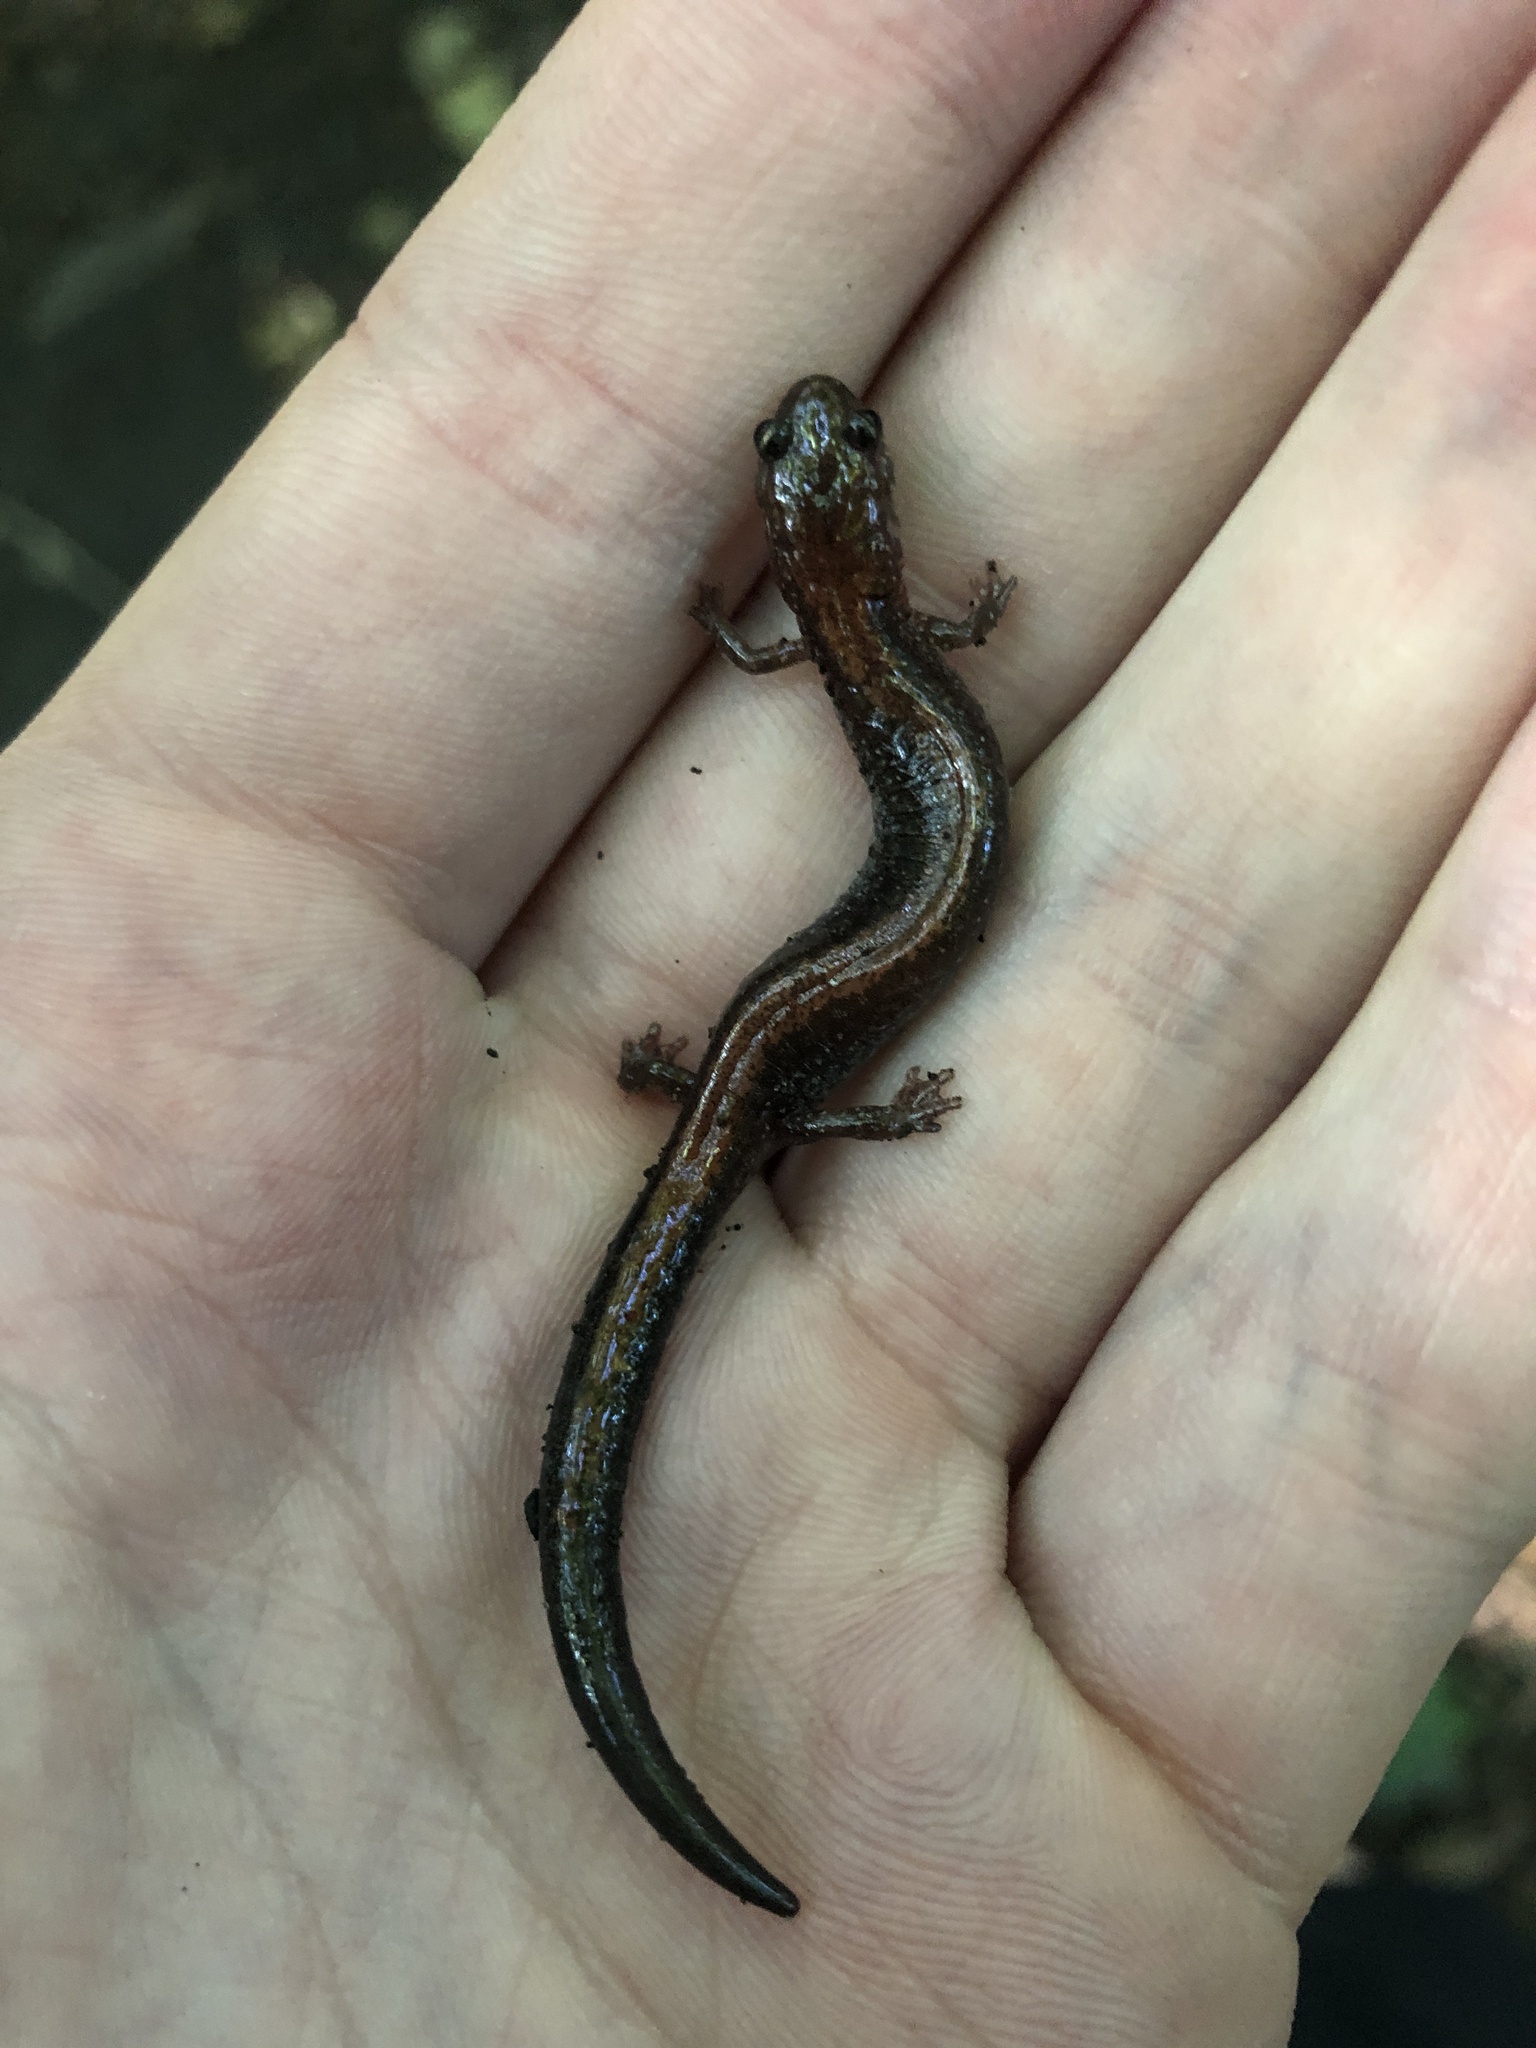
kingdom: Animalia
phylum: Chordata
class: Amphibia
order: Caudata
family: Plethodontidae
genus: Plethodon
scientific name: Plethodon cinereus
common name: Redback salamander
